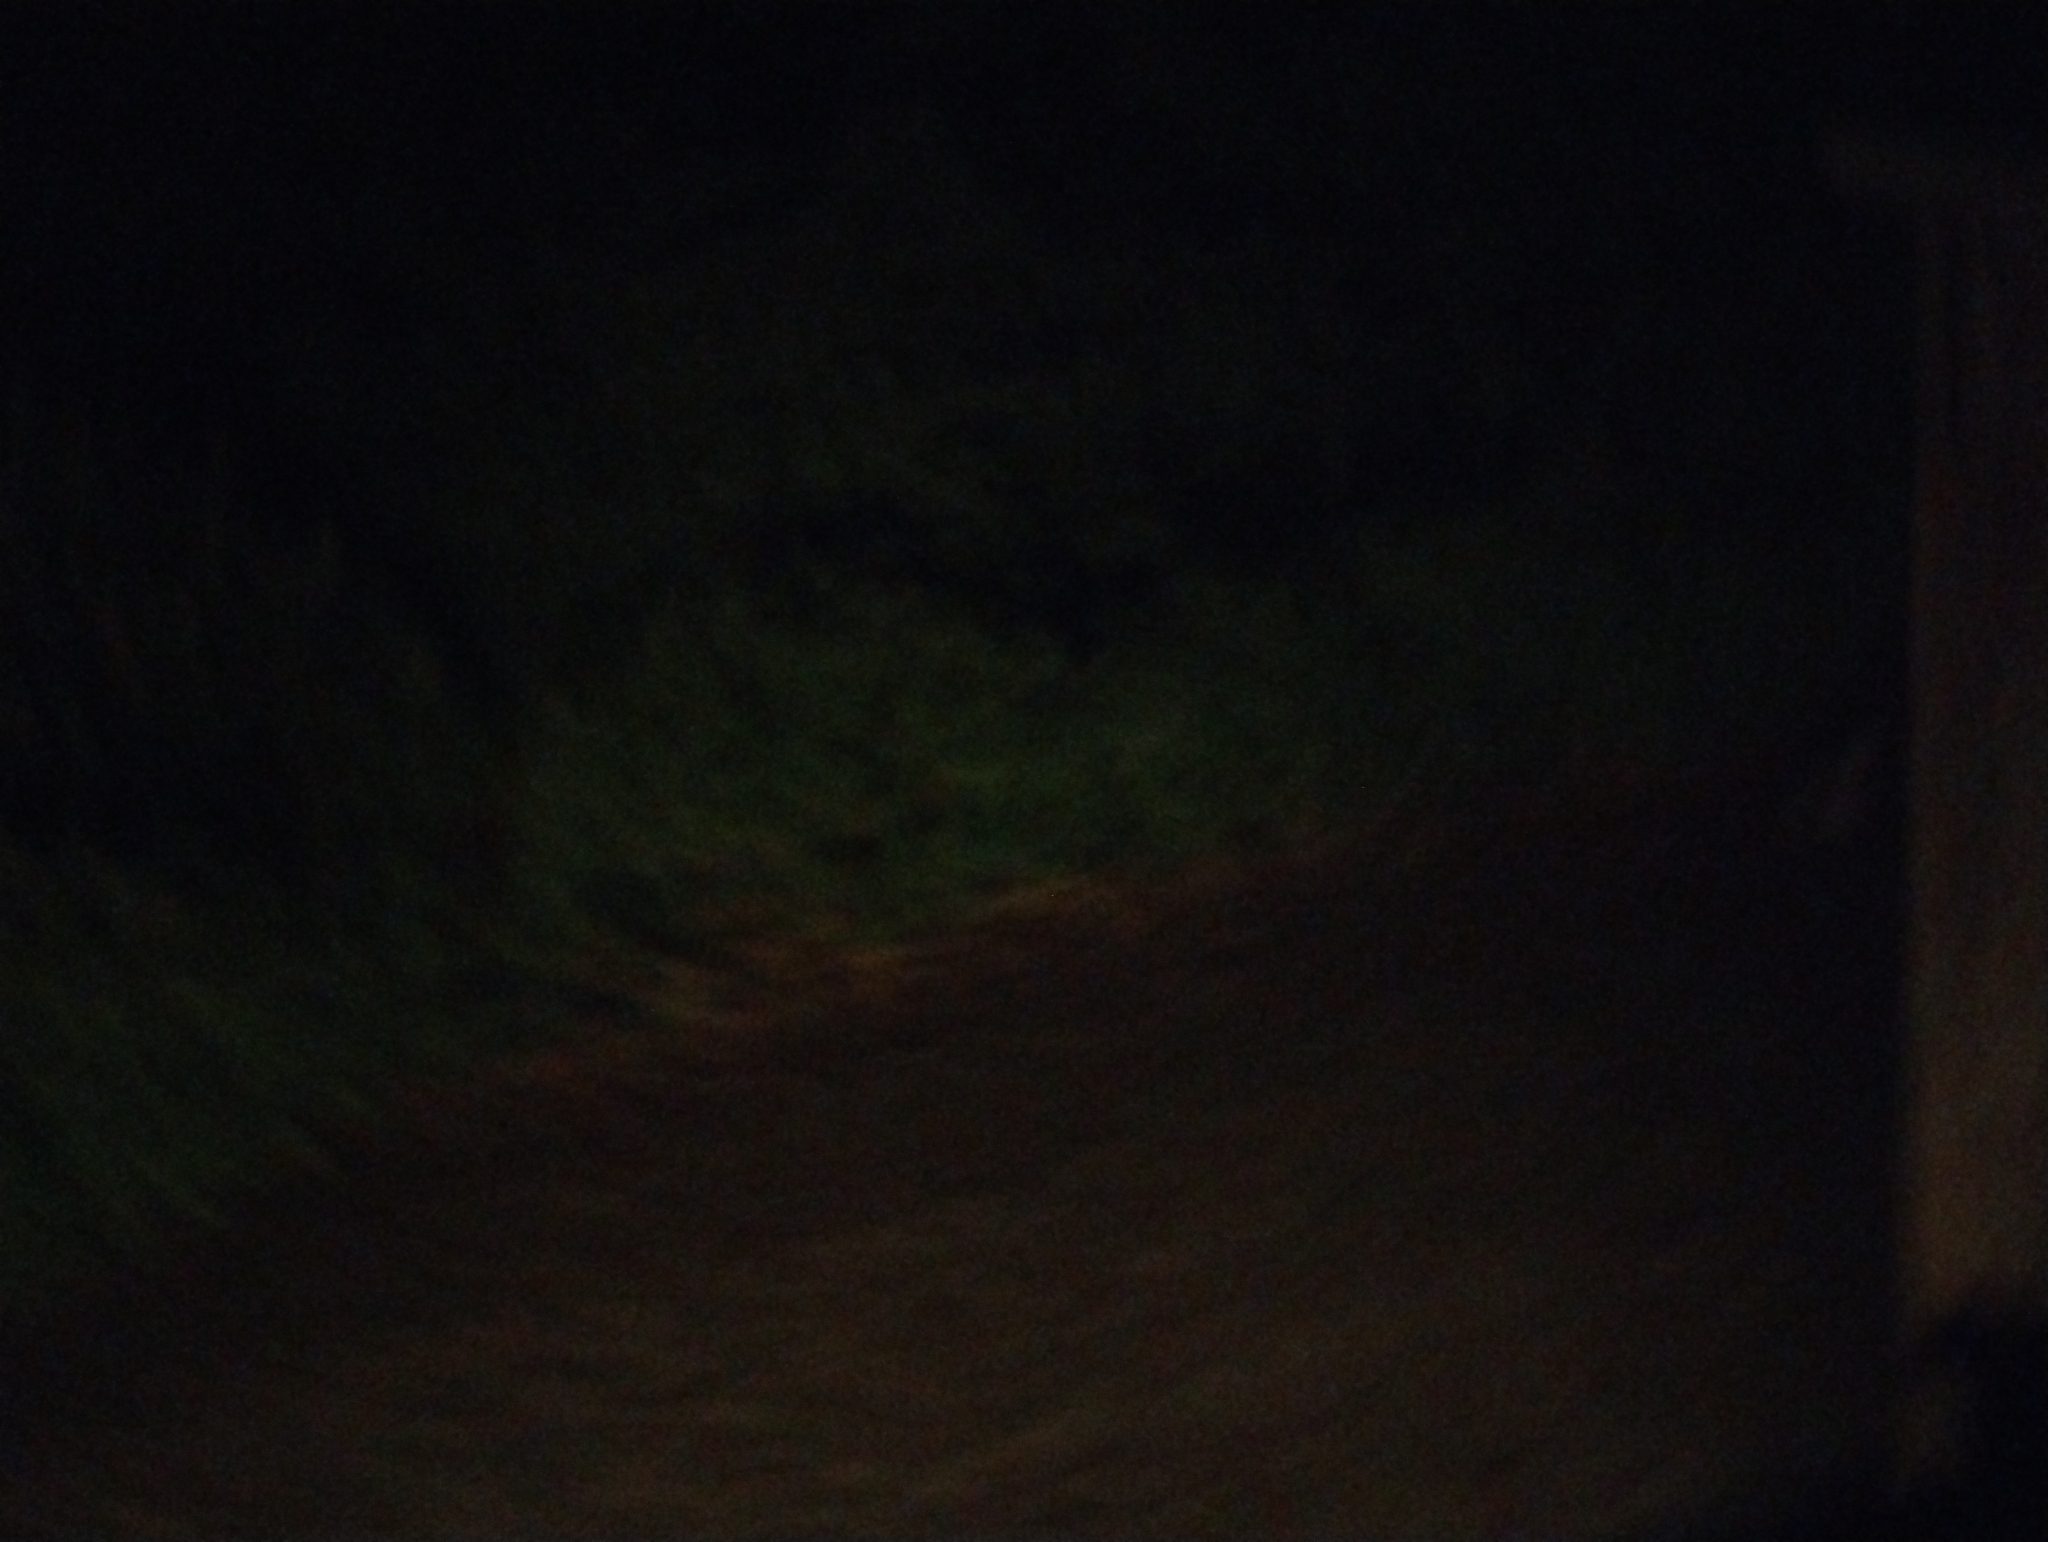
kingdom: Animalia
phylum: Chordata
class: Aves
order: Sphenisciformes
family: Spheniscidae
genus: Eudyptula
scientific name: Eudyptula minor
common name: Little penguin
